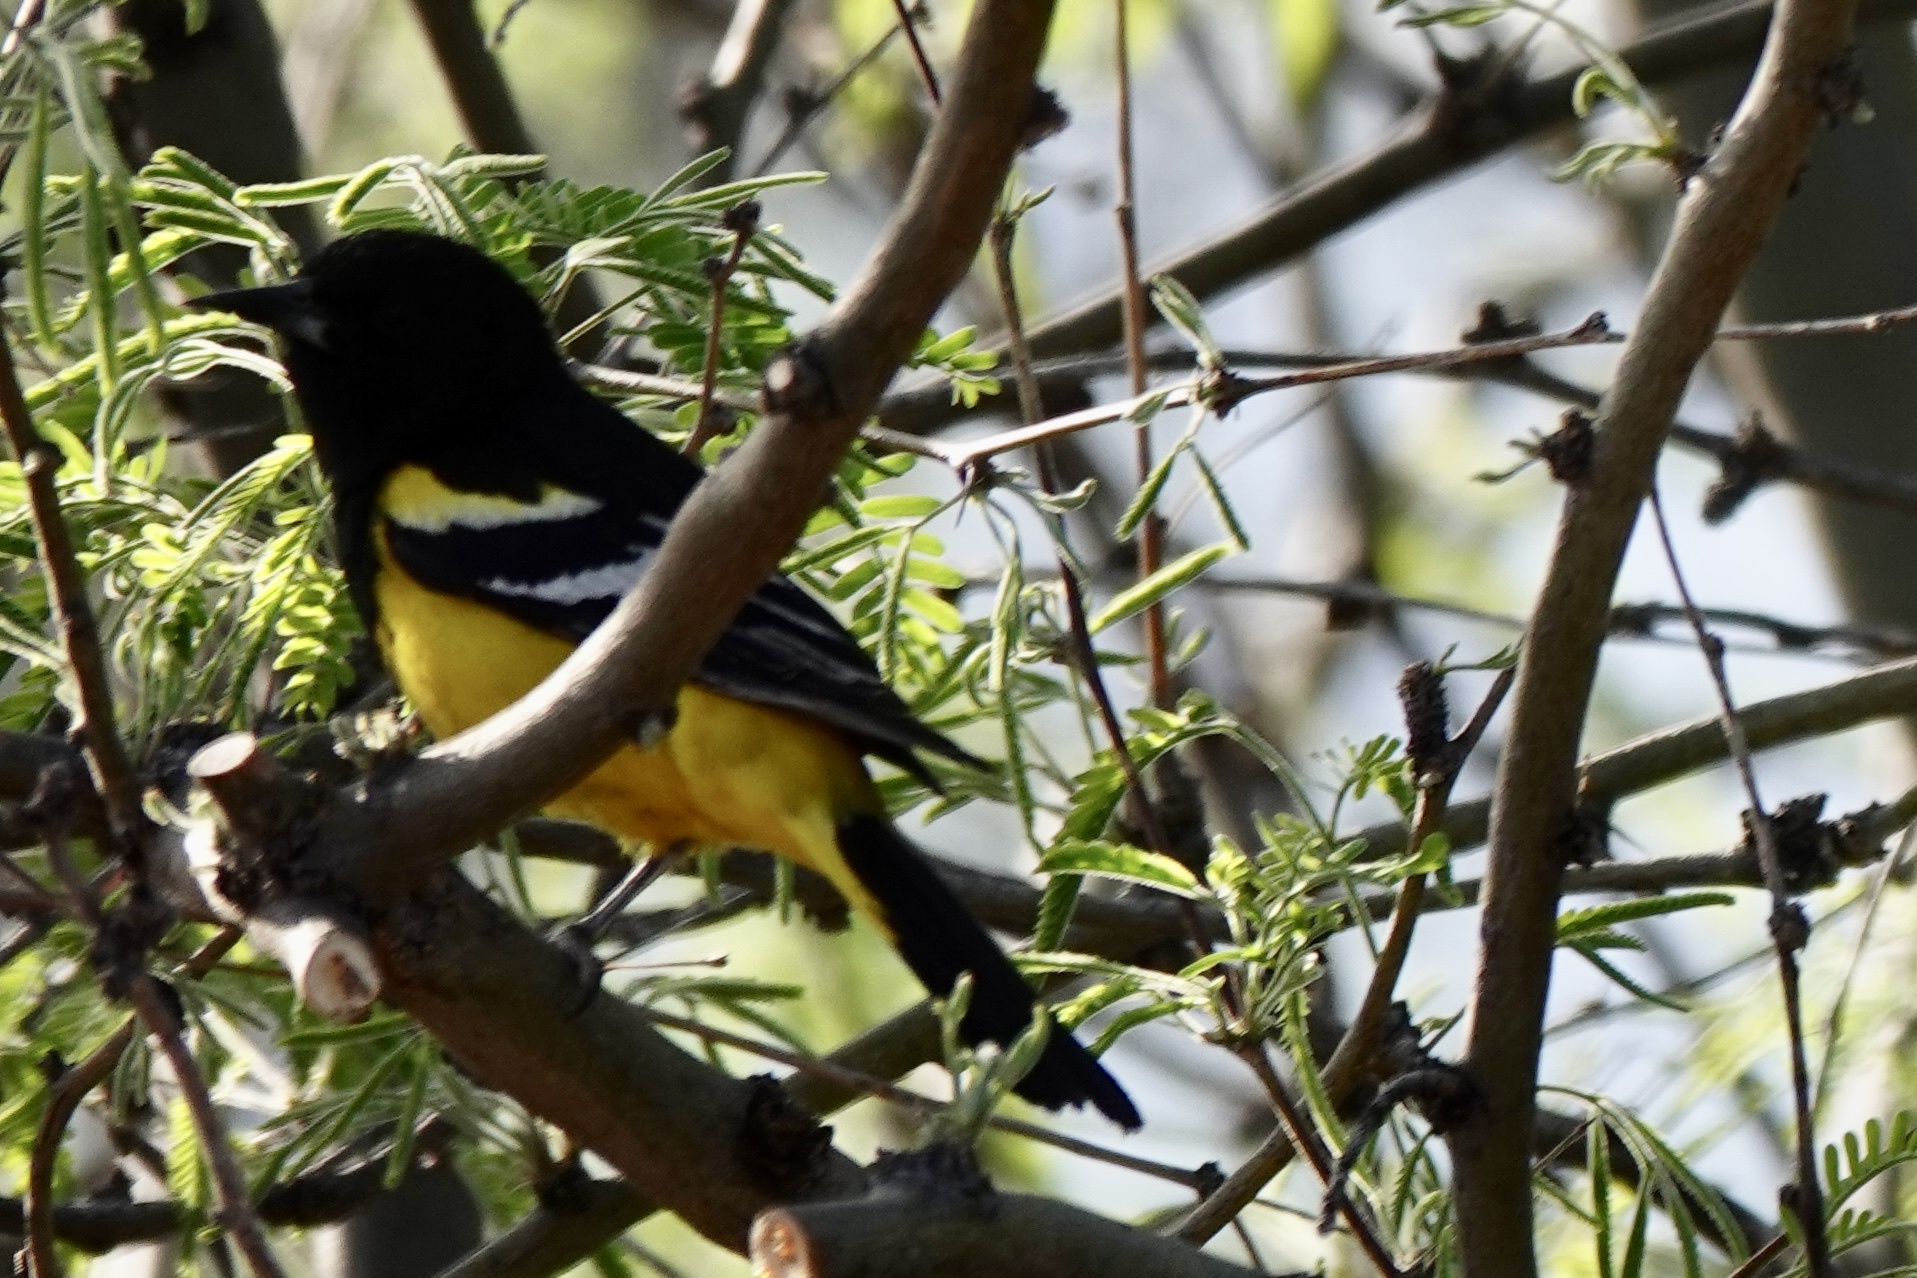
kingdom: Animalia
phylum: Chordata
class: Aves
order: Passeriformes
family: Icteridae
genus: Icterus
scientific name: Icterus parisorum
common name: Scott's oriole
